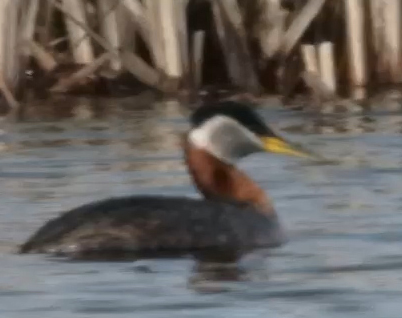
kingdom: Animalia
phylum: Chordata
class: Aves
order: Podicipediformes
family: Podicipedidae
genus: Podiceps
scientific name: Podiceps grisegena
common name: Red-necked grebe
